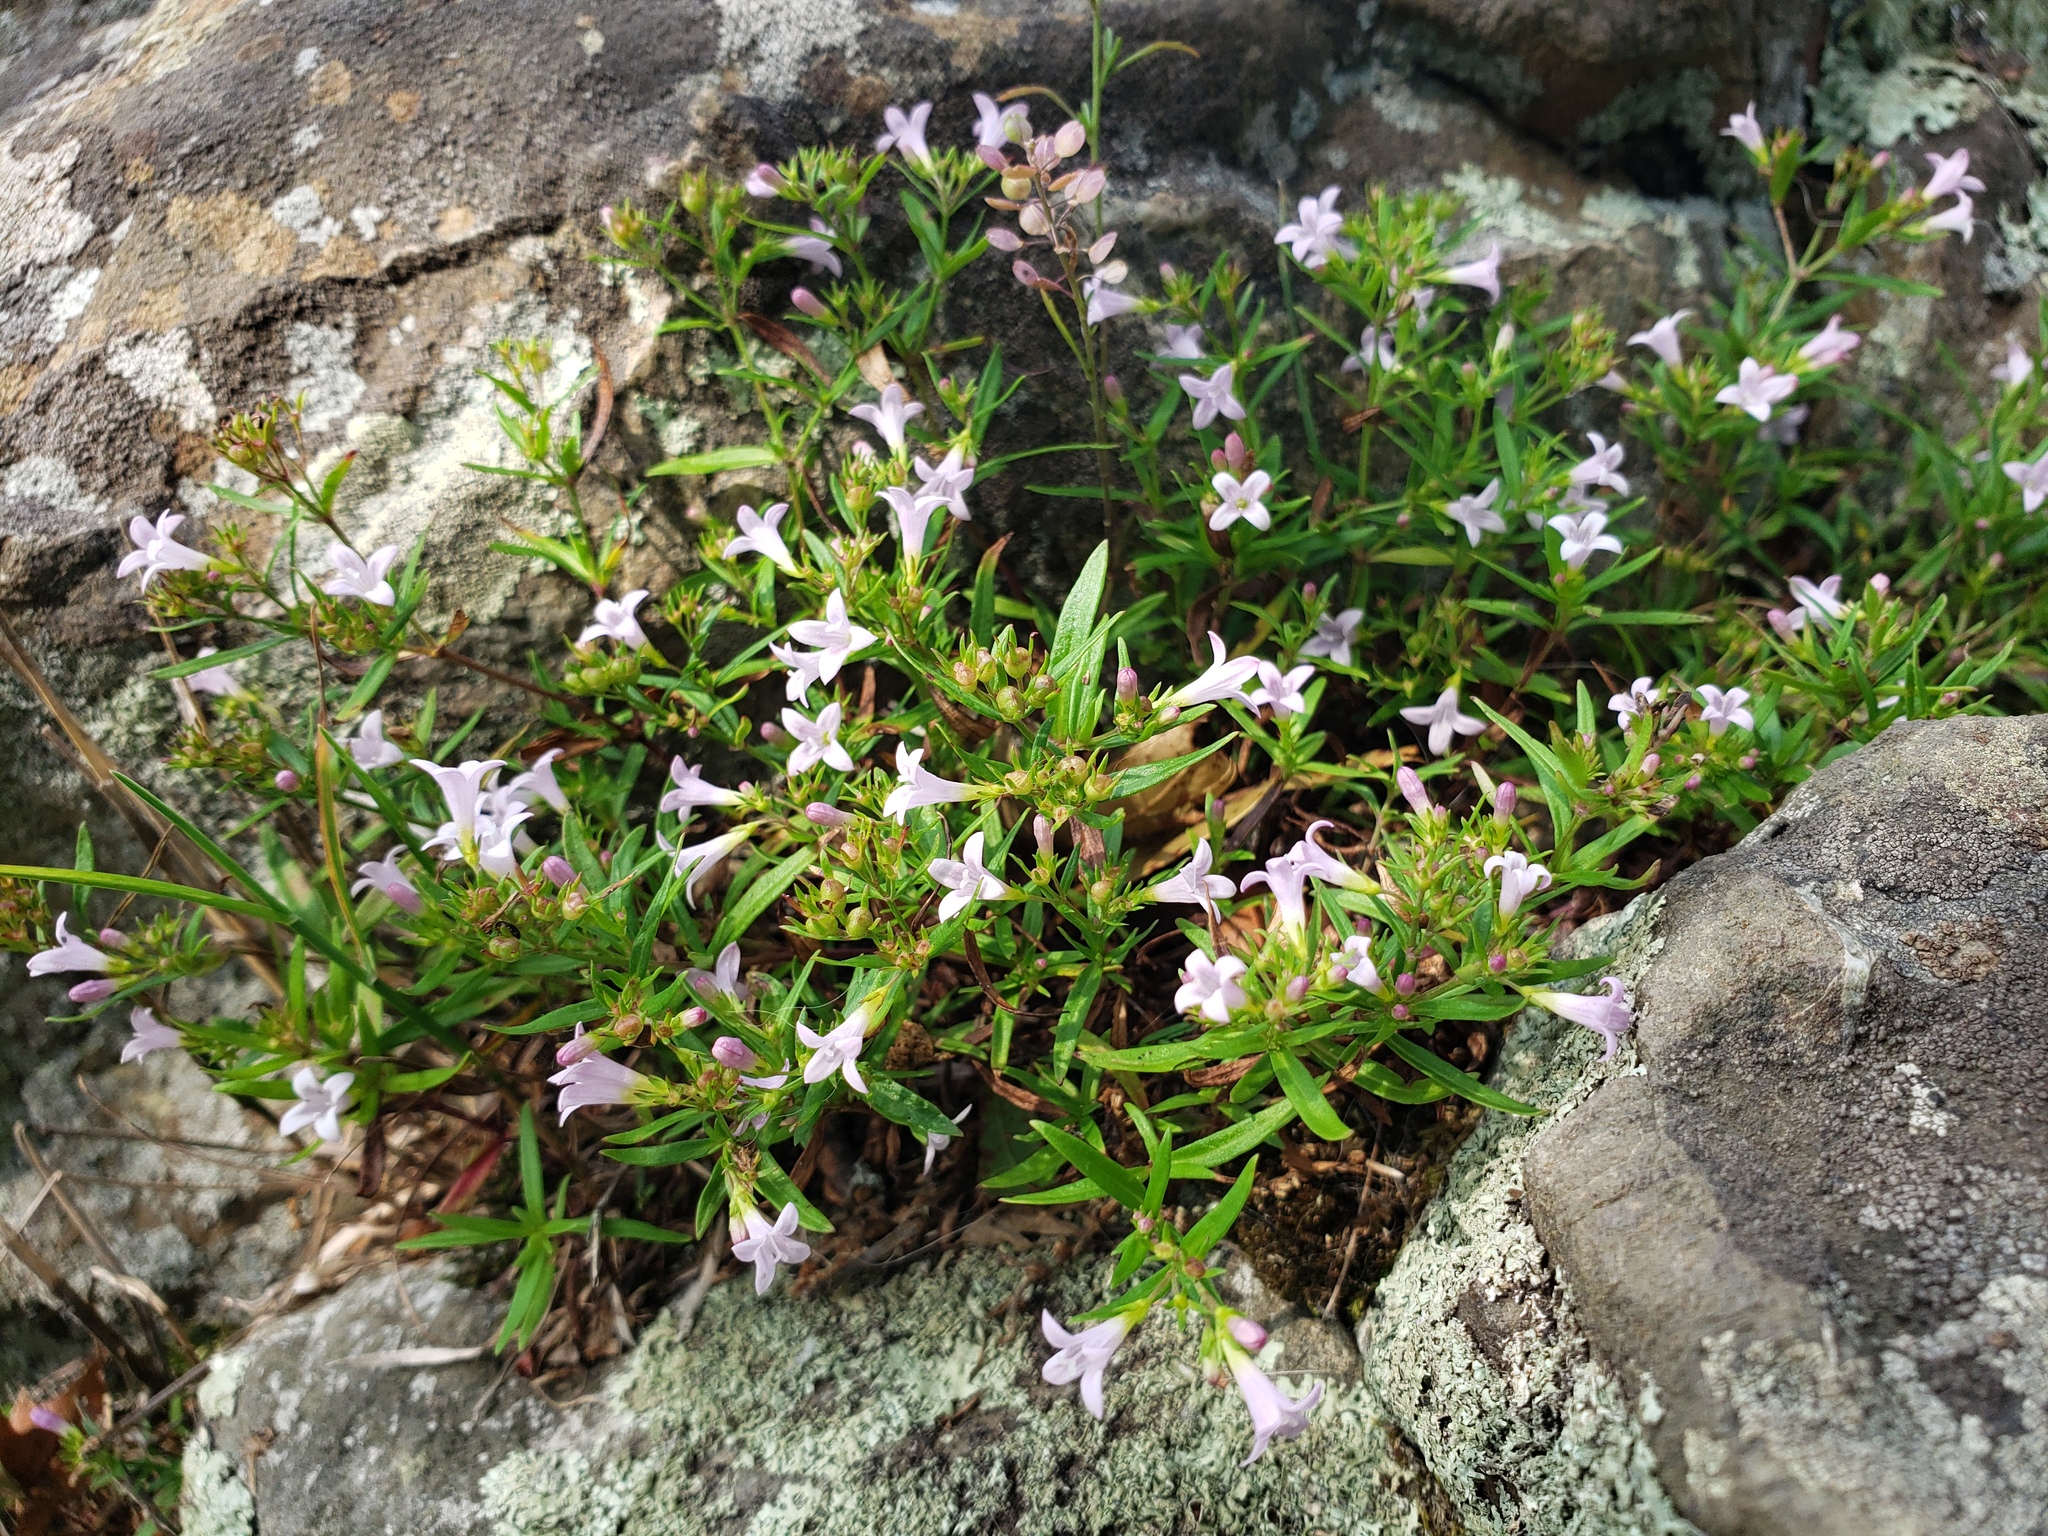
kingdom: Plantae
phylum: Tracheophyta
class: Magnoliopsida
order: Gentianales
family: Rubiaceae
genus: Houstonia
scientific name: Houstonia longifolia
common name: Long-leaved bluets
